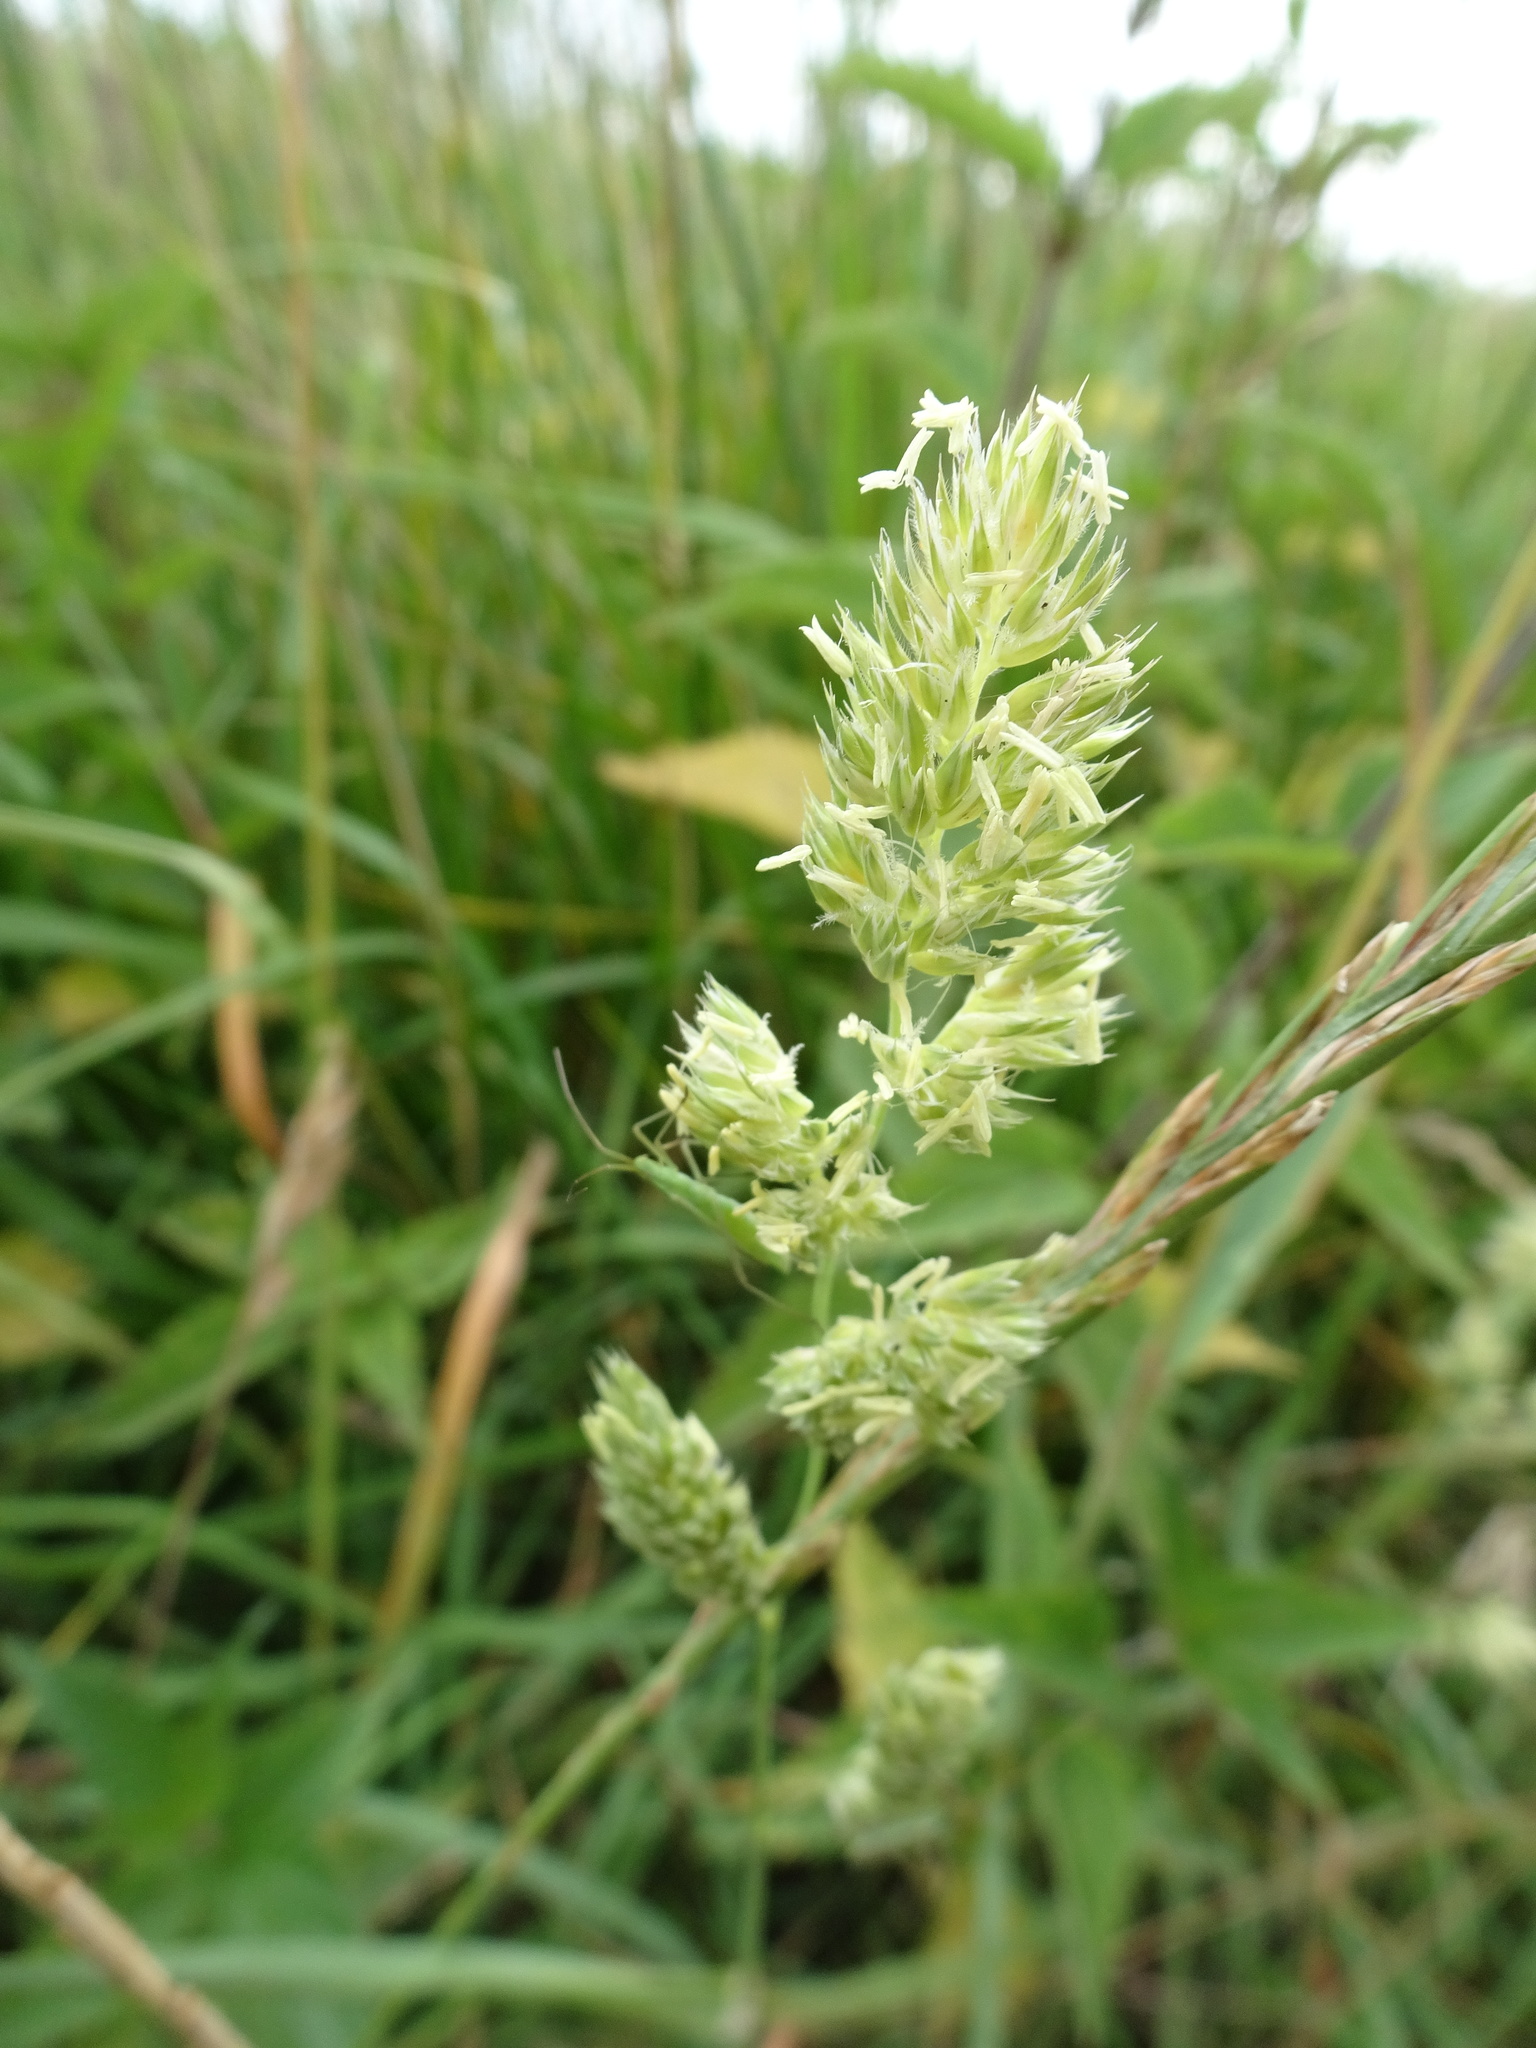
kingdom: Plantae
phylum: Tracheophyta
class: Liliopsida
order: Poales
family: Poaceae
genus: Dactylis
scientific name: Dactylis glomerata
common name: Orchardgrass
